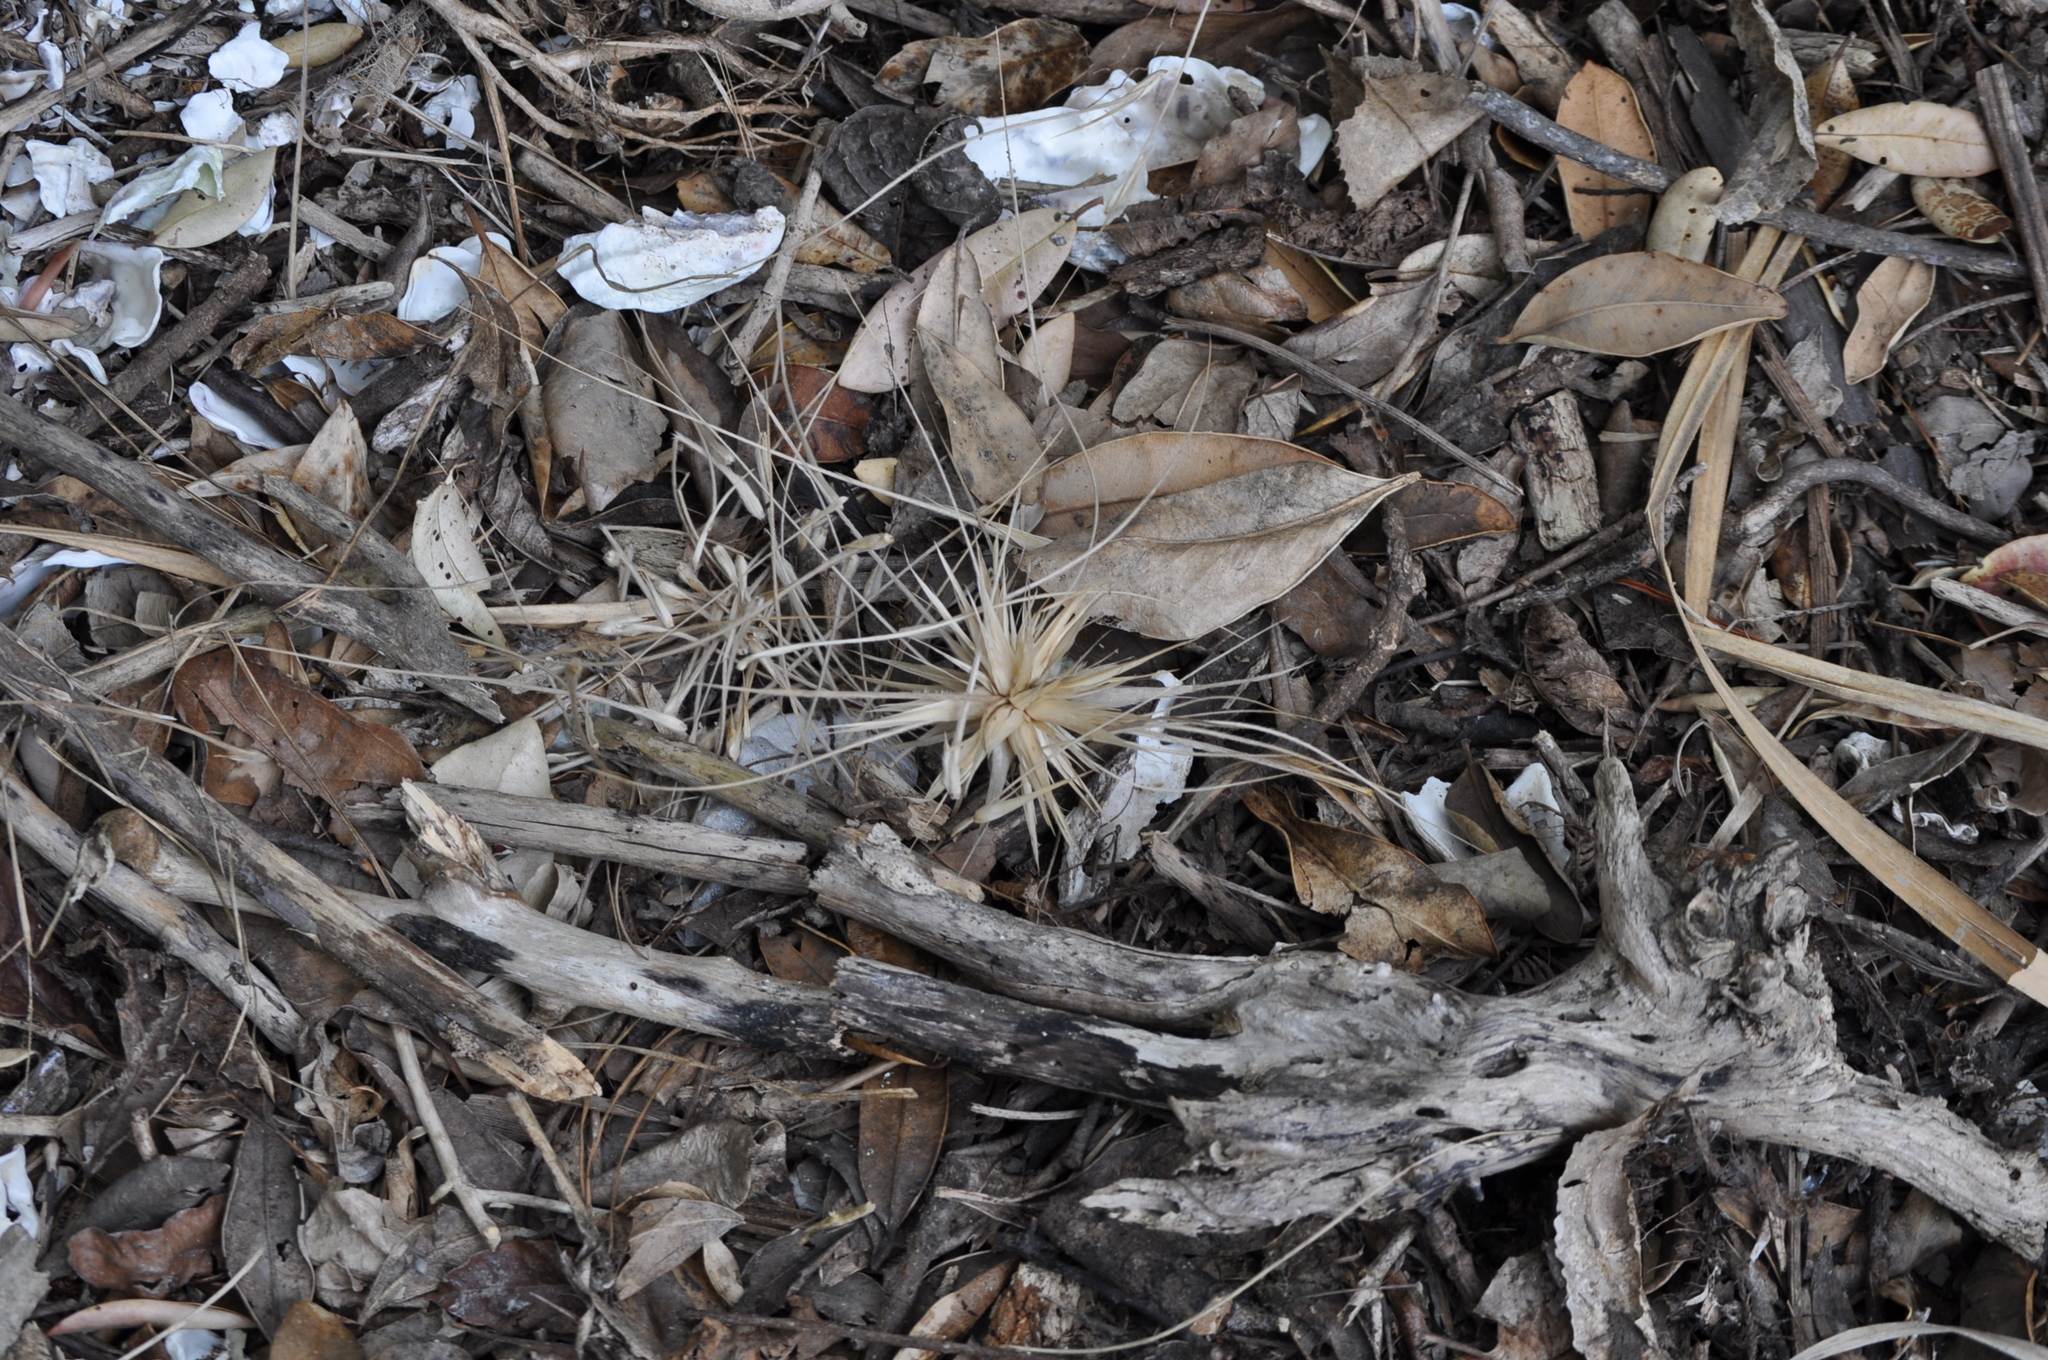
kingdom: Plantae
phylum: Tracheophyta
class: Liliopsida
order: Poales
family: Poaceae
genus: Spinifex
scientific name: Spinifex sericeus
